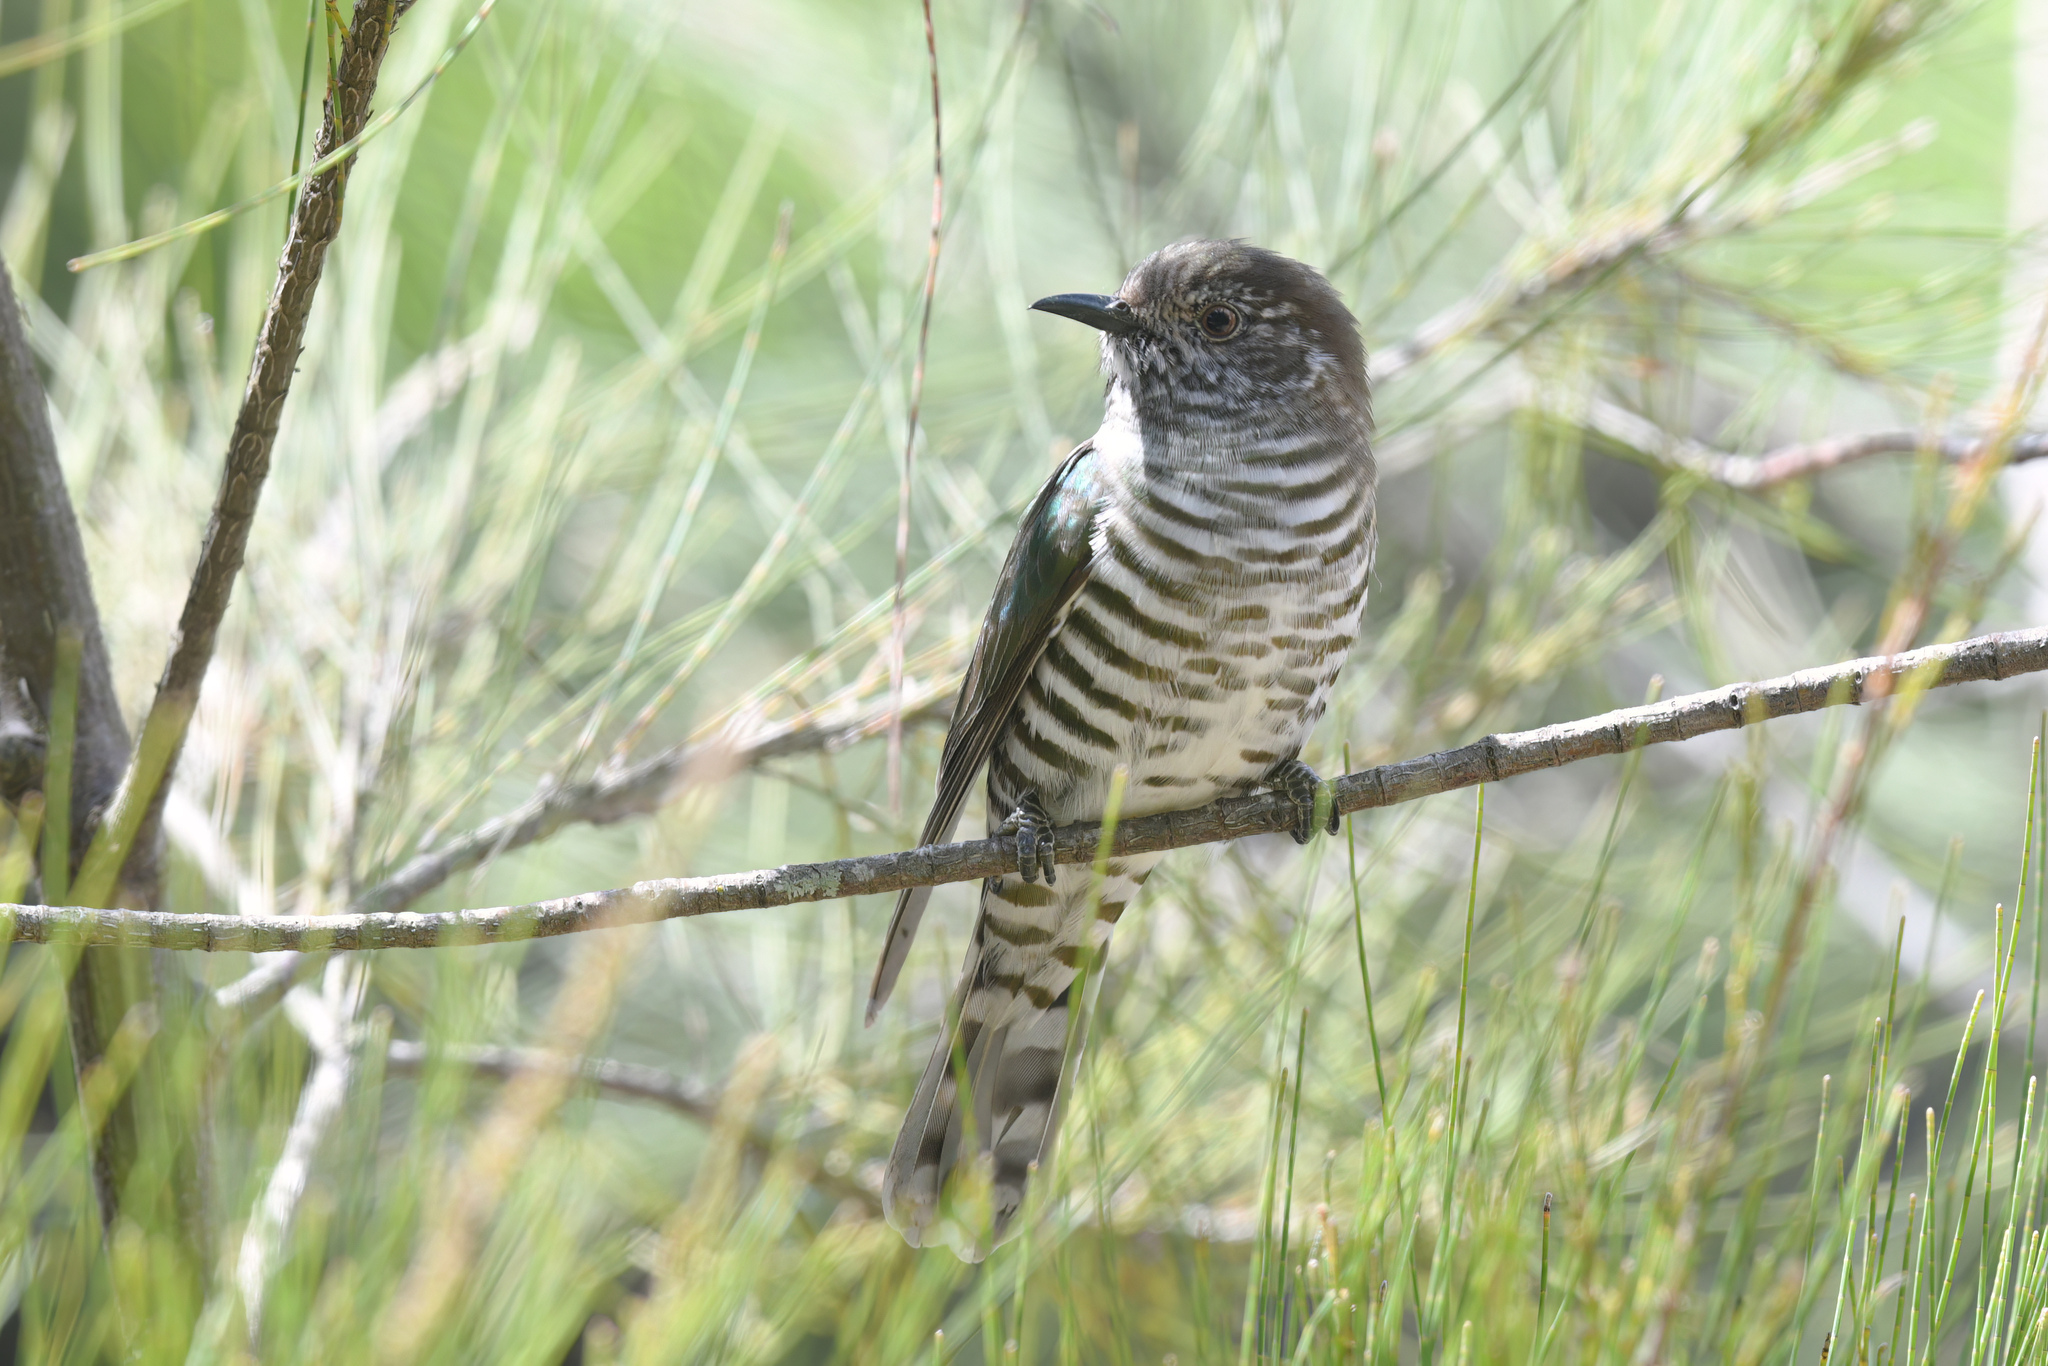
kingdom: Animalia
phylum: Chordata
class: Aves
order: Cuculiformes
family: Cuculidae
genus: Chrysococcyx
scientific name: Chrysococcyx lucidus
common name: Shining bronze cuckoo
